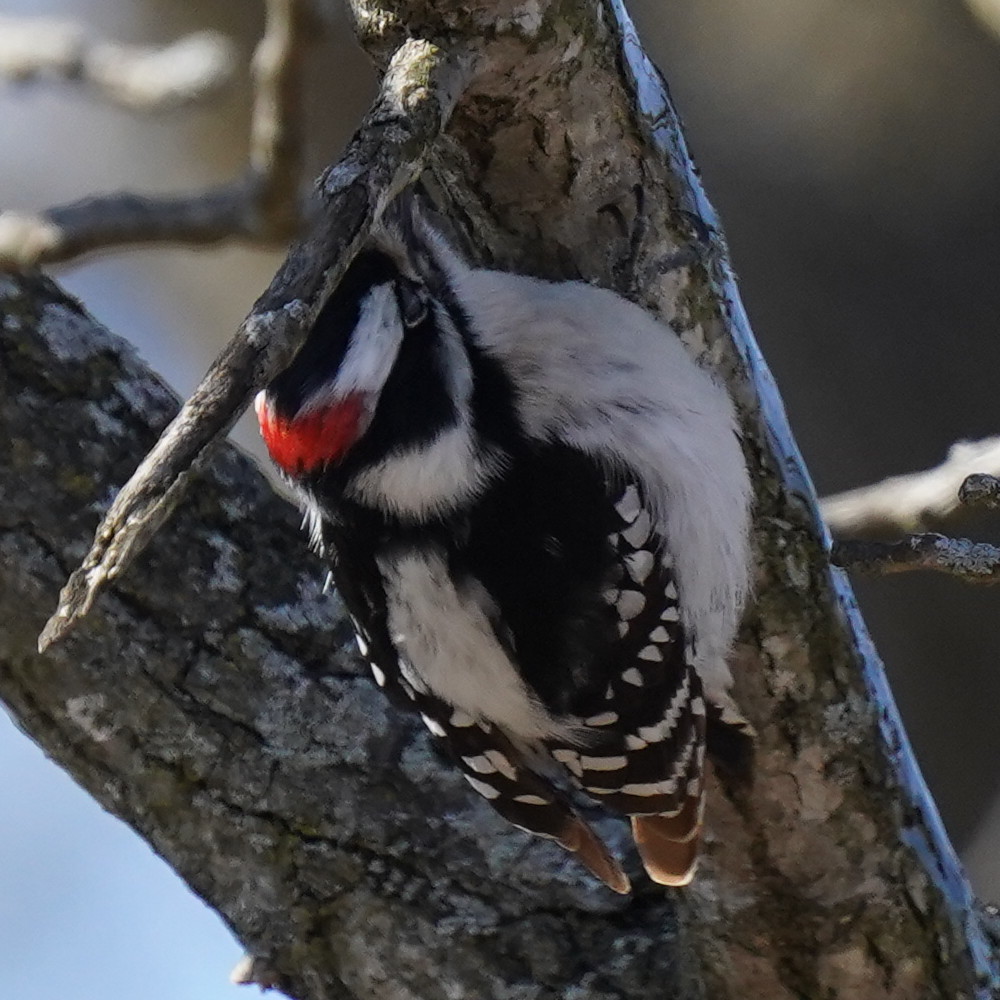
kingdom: Animalia
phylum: Chordata
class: Aves
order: Piciformes
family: Picidae
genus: Dryobates
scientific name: Dryobates pubescens
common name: Downy woodpecker
